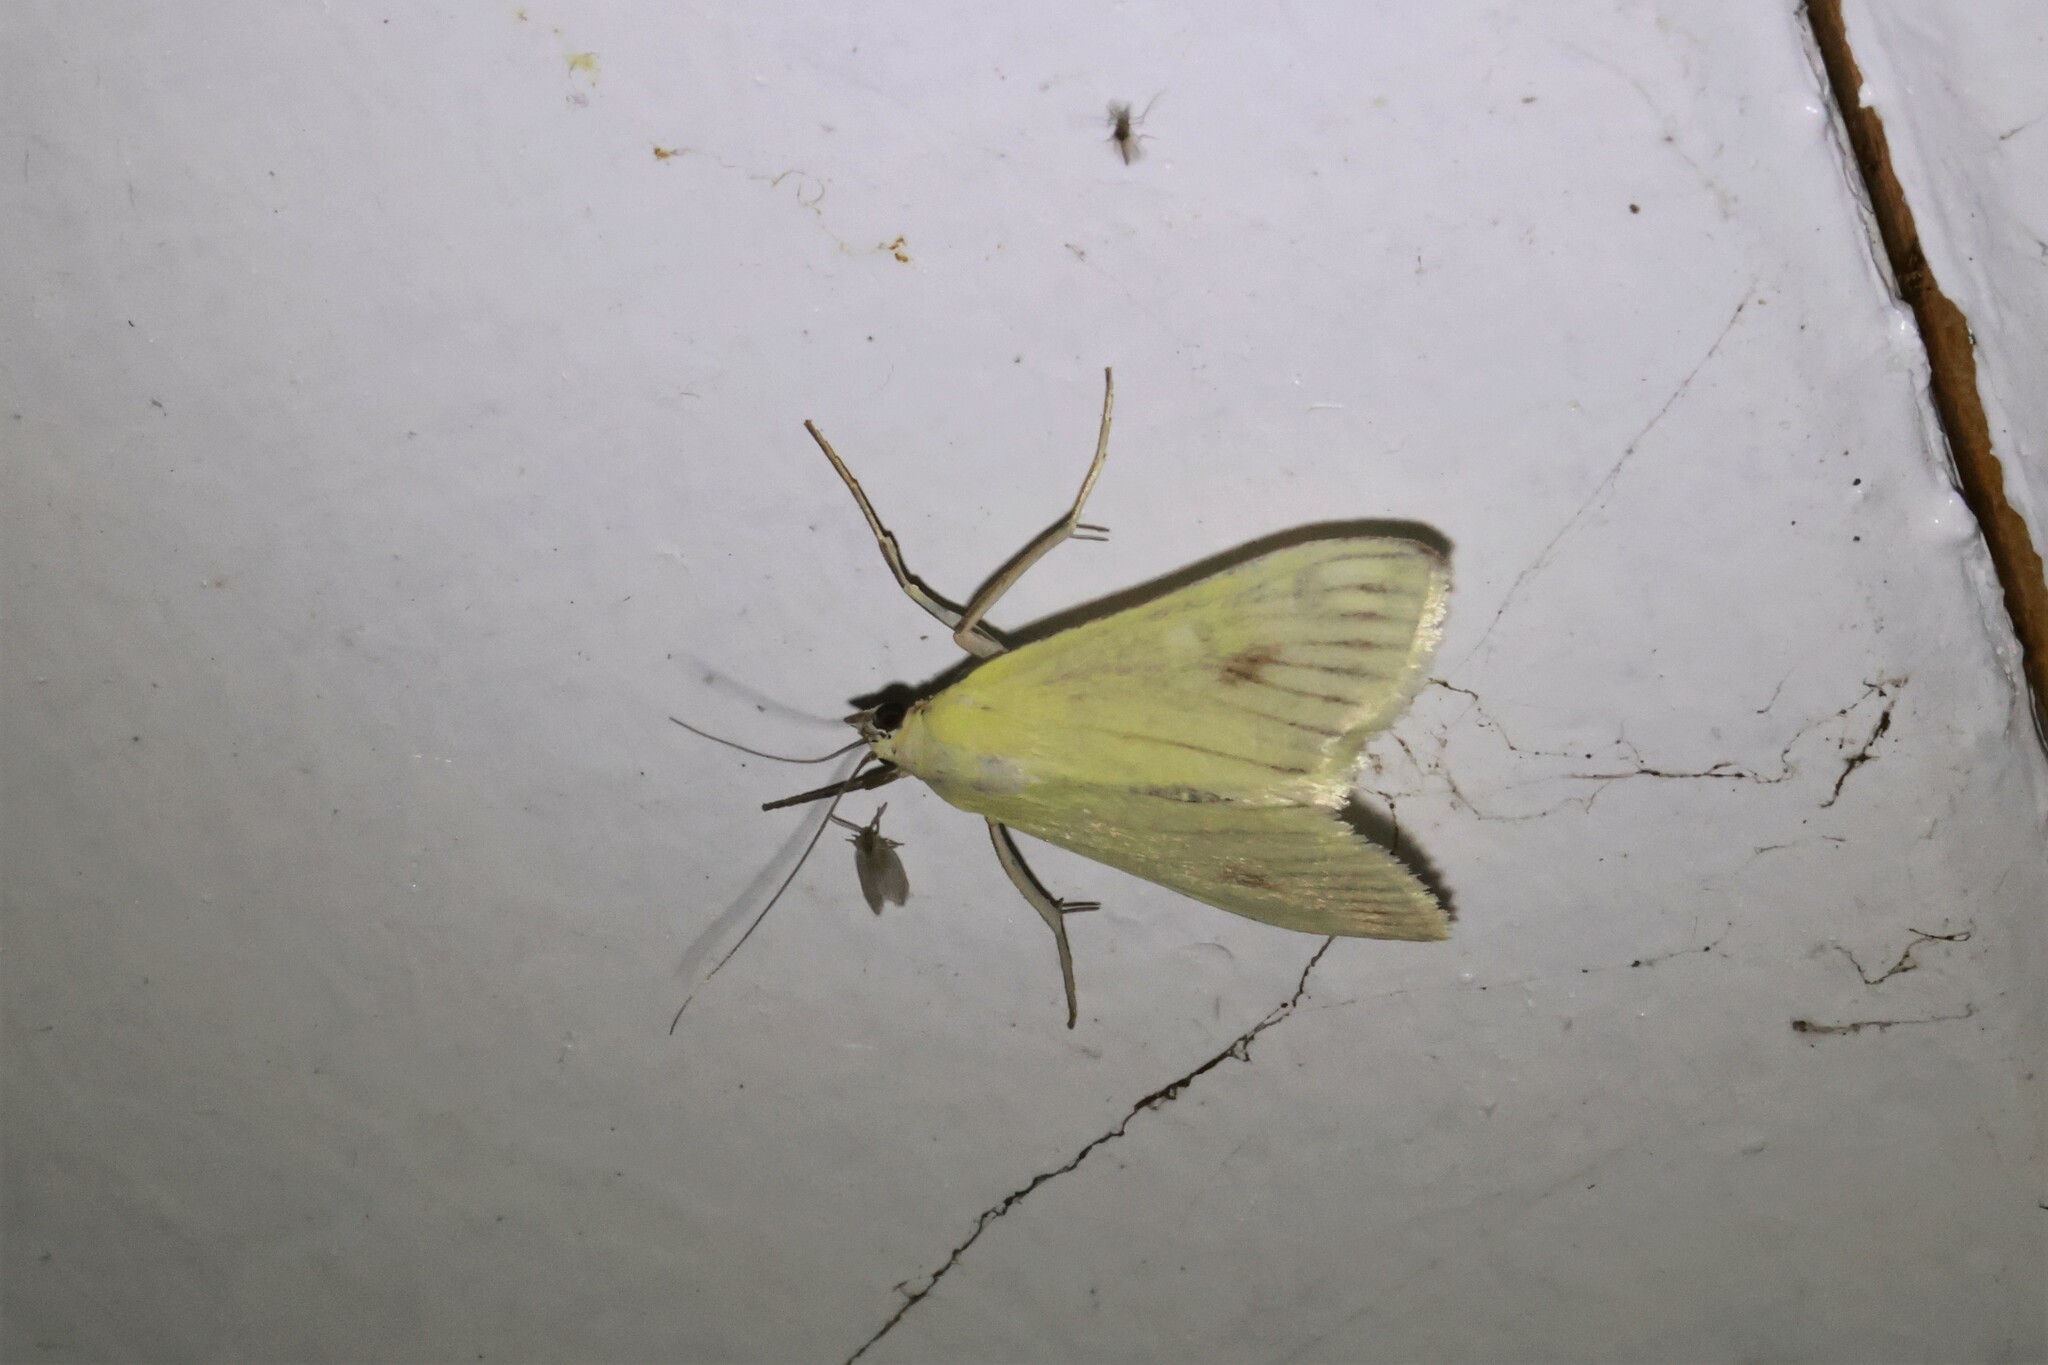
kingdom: Animalia
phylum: Arthropoda
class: Insecta
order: Lepidoptera
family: Crambidae
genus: Sitochroa
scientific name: Sitochroa palealis
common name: Greenish-yellow sitochroa moth
